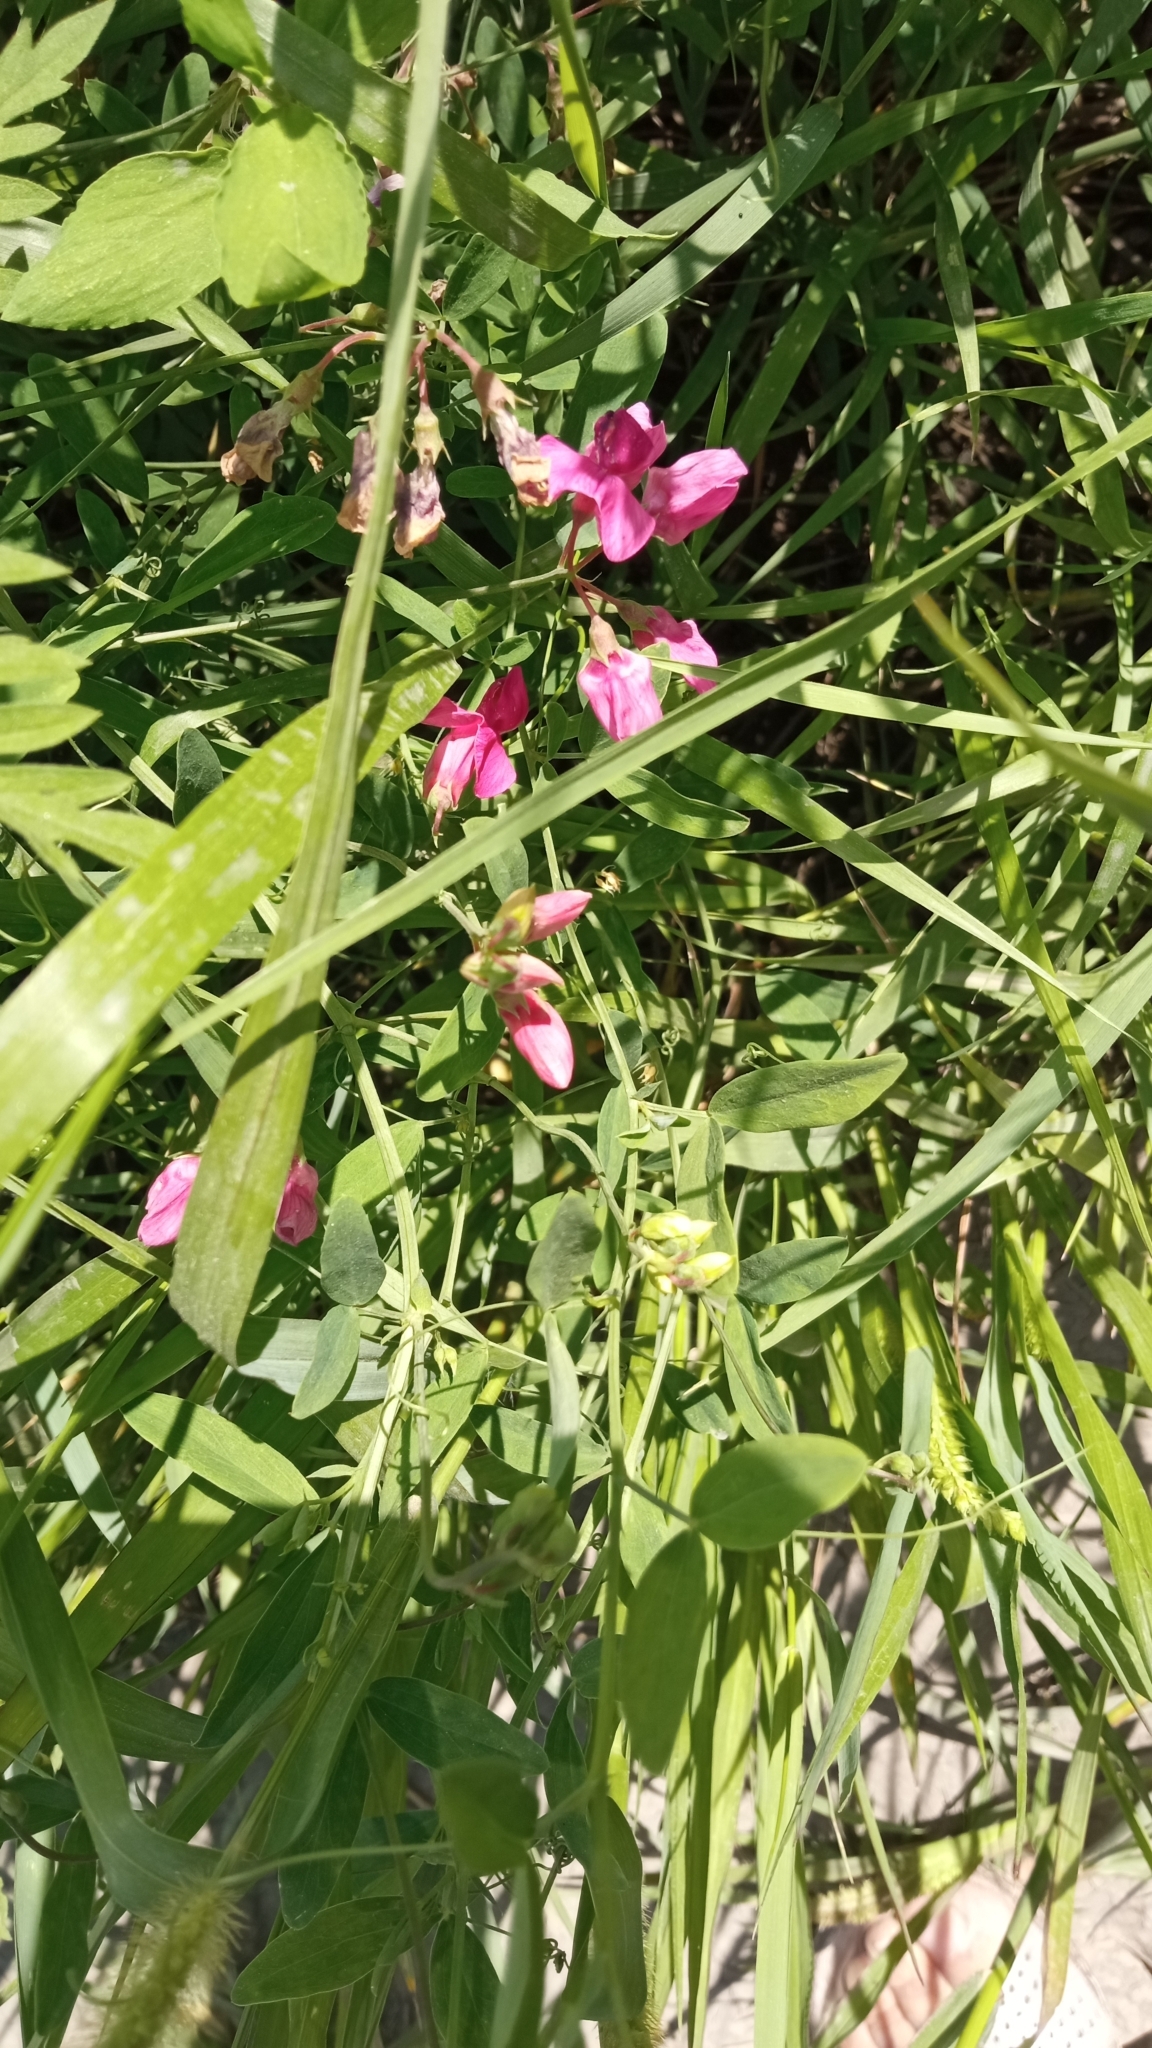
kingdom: Plantae
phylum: Tracheophyta
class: Magnoliopsida
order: Fabales
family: Fabaceae
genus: Lathyrus
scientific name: Lathyrus tuberosus
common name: Tuberous pea
